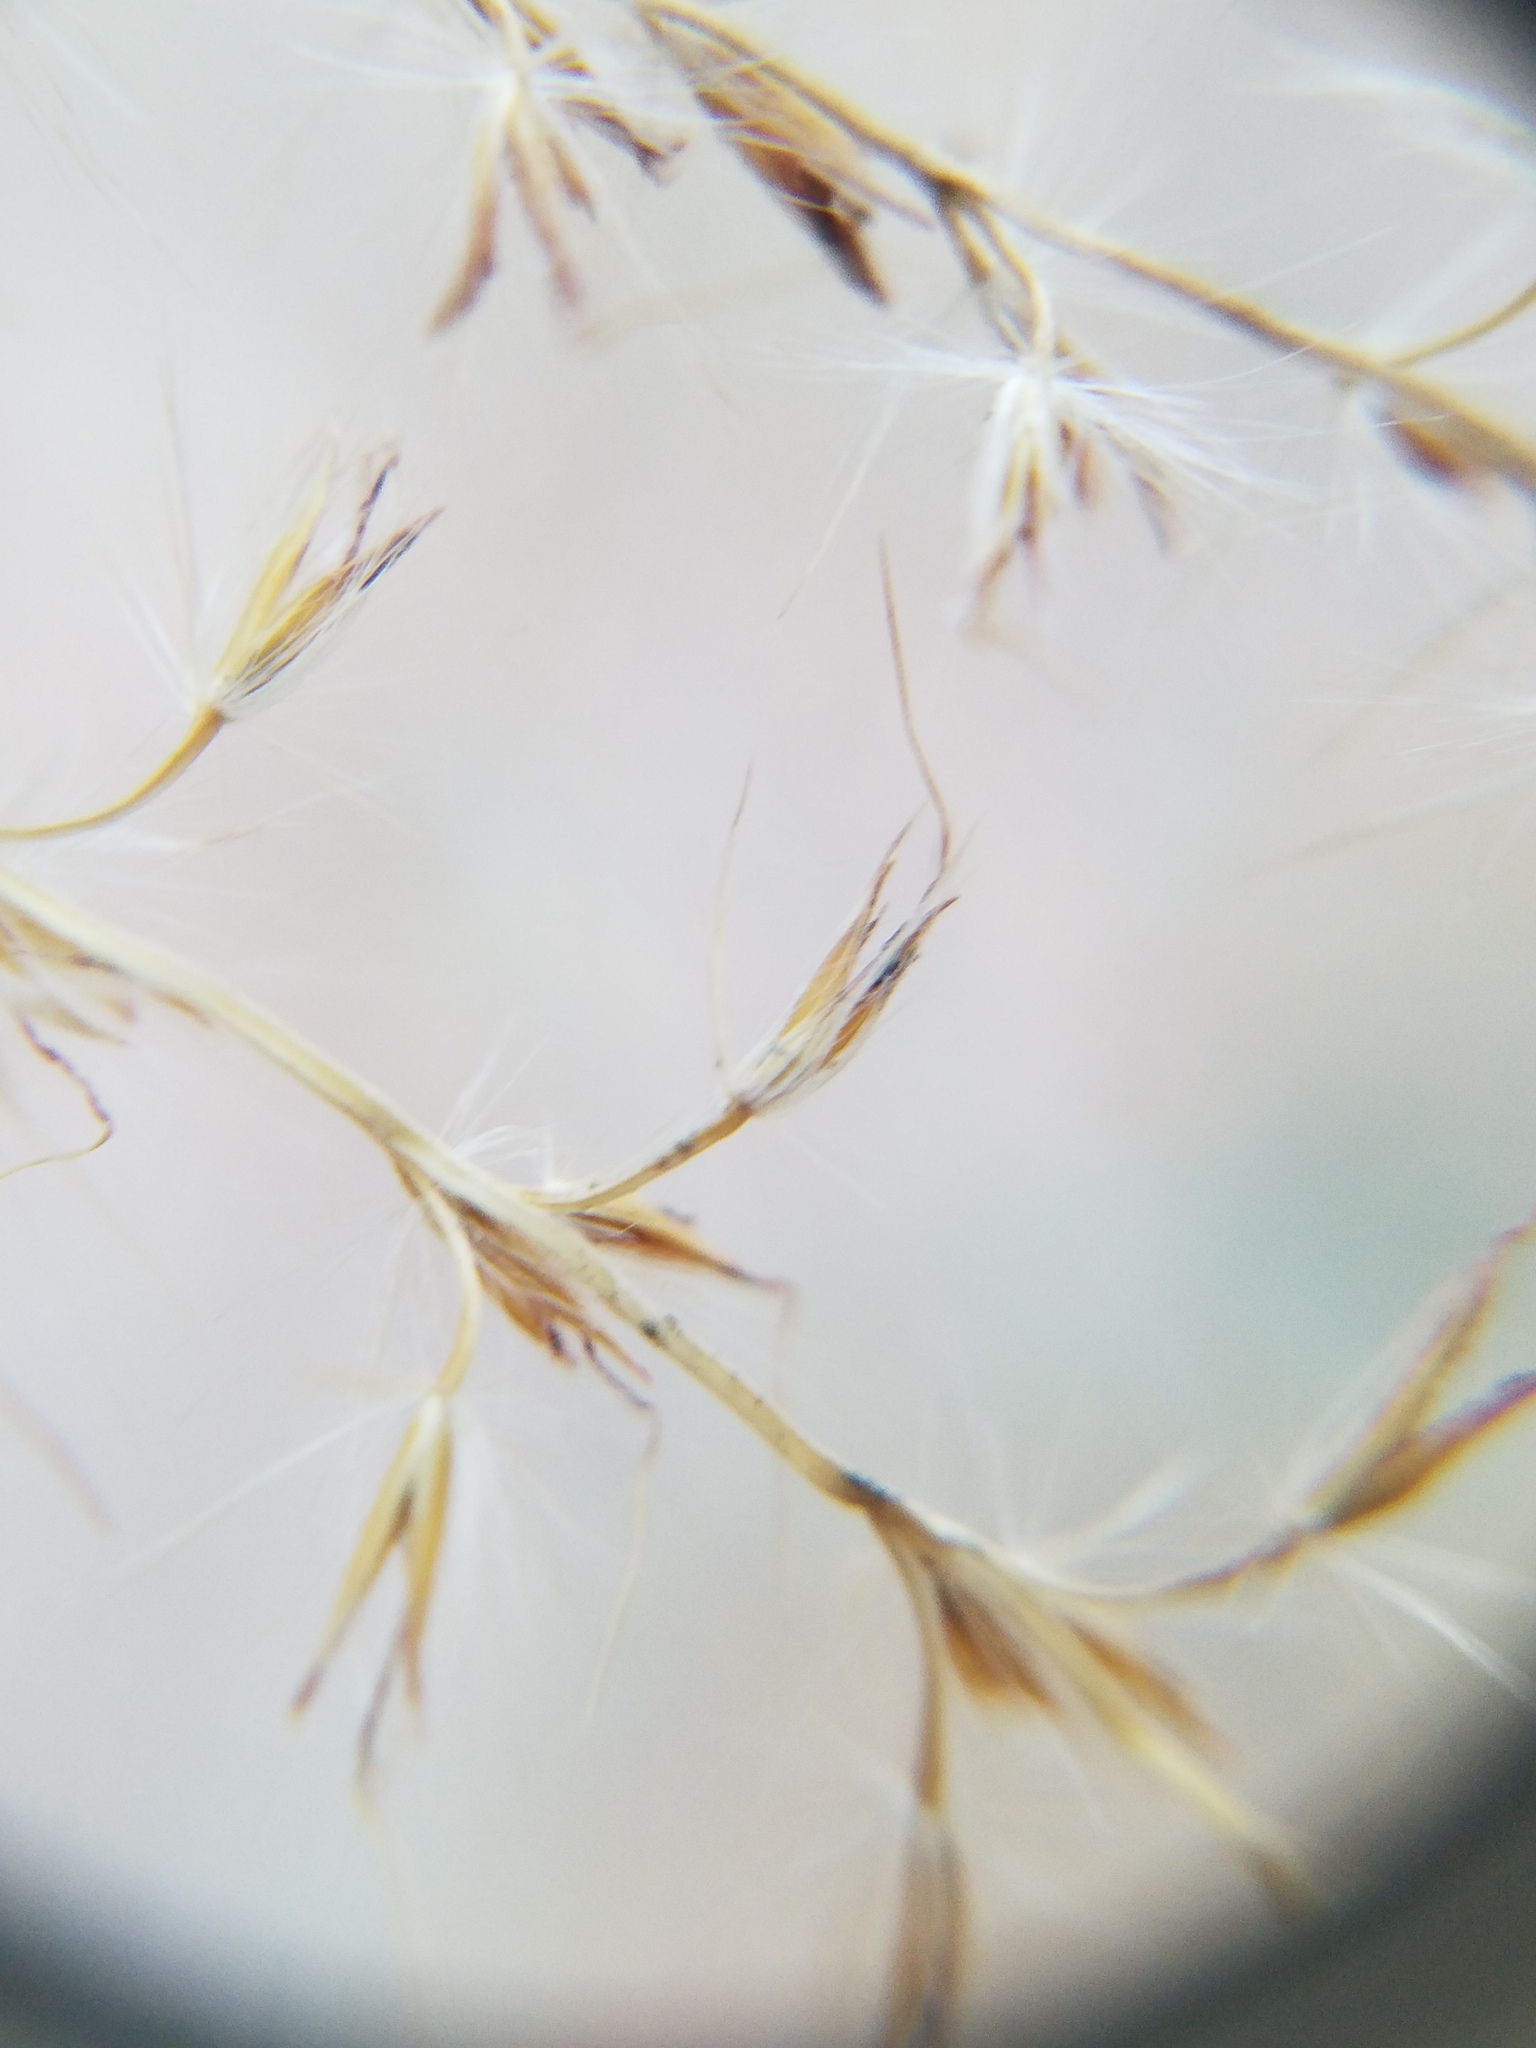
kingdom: Plantae
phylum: Tracheophyta
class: Liliopsida
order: Poales
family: Poaceae
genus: Miscanthus
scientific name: Miscanthus sinensis
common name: Chinese silvergrass
